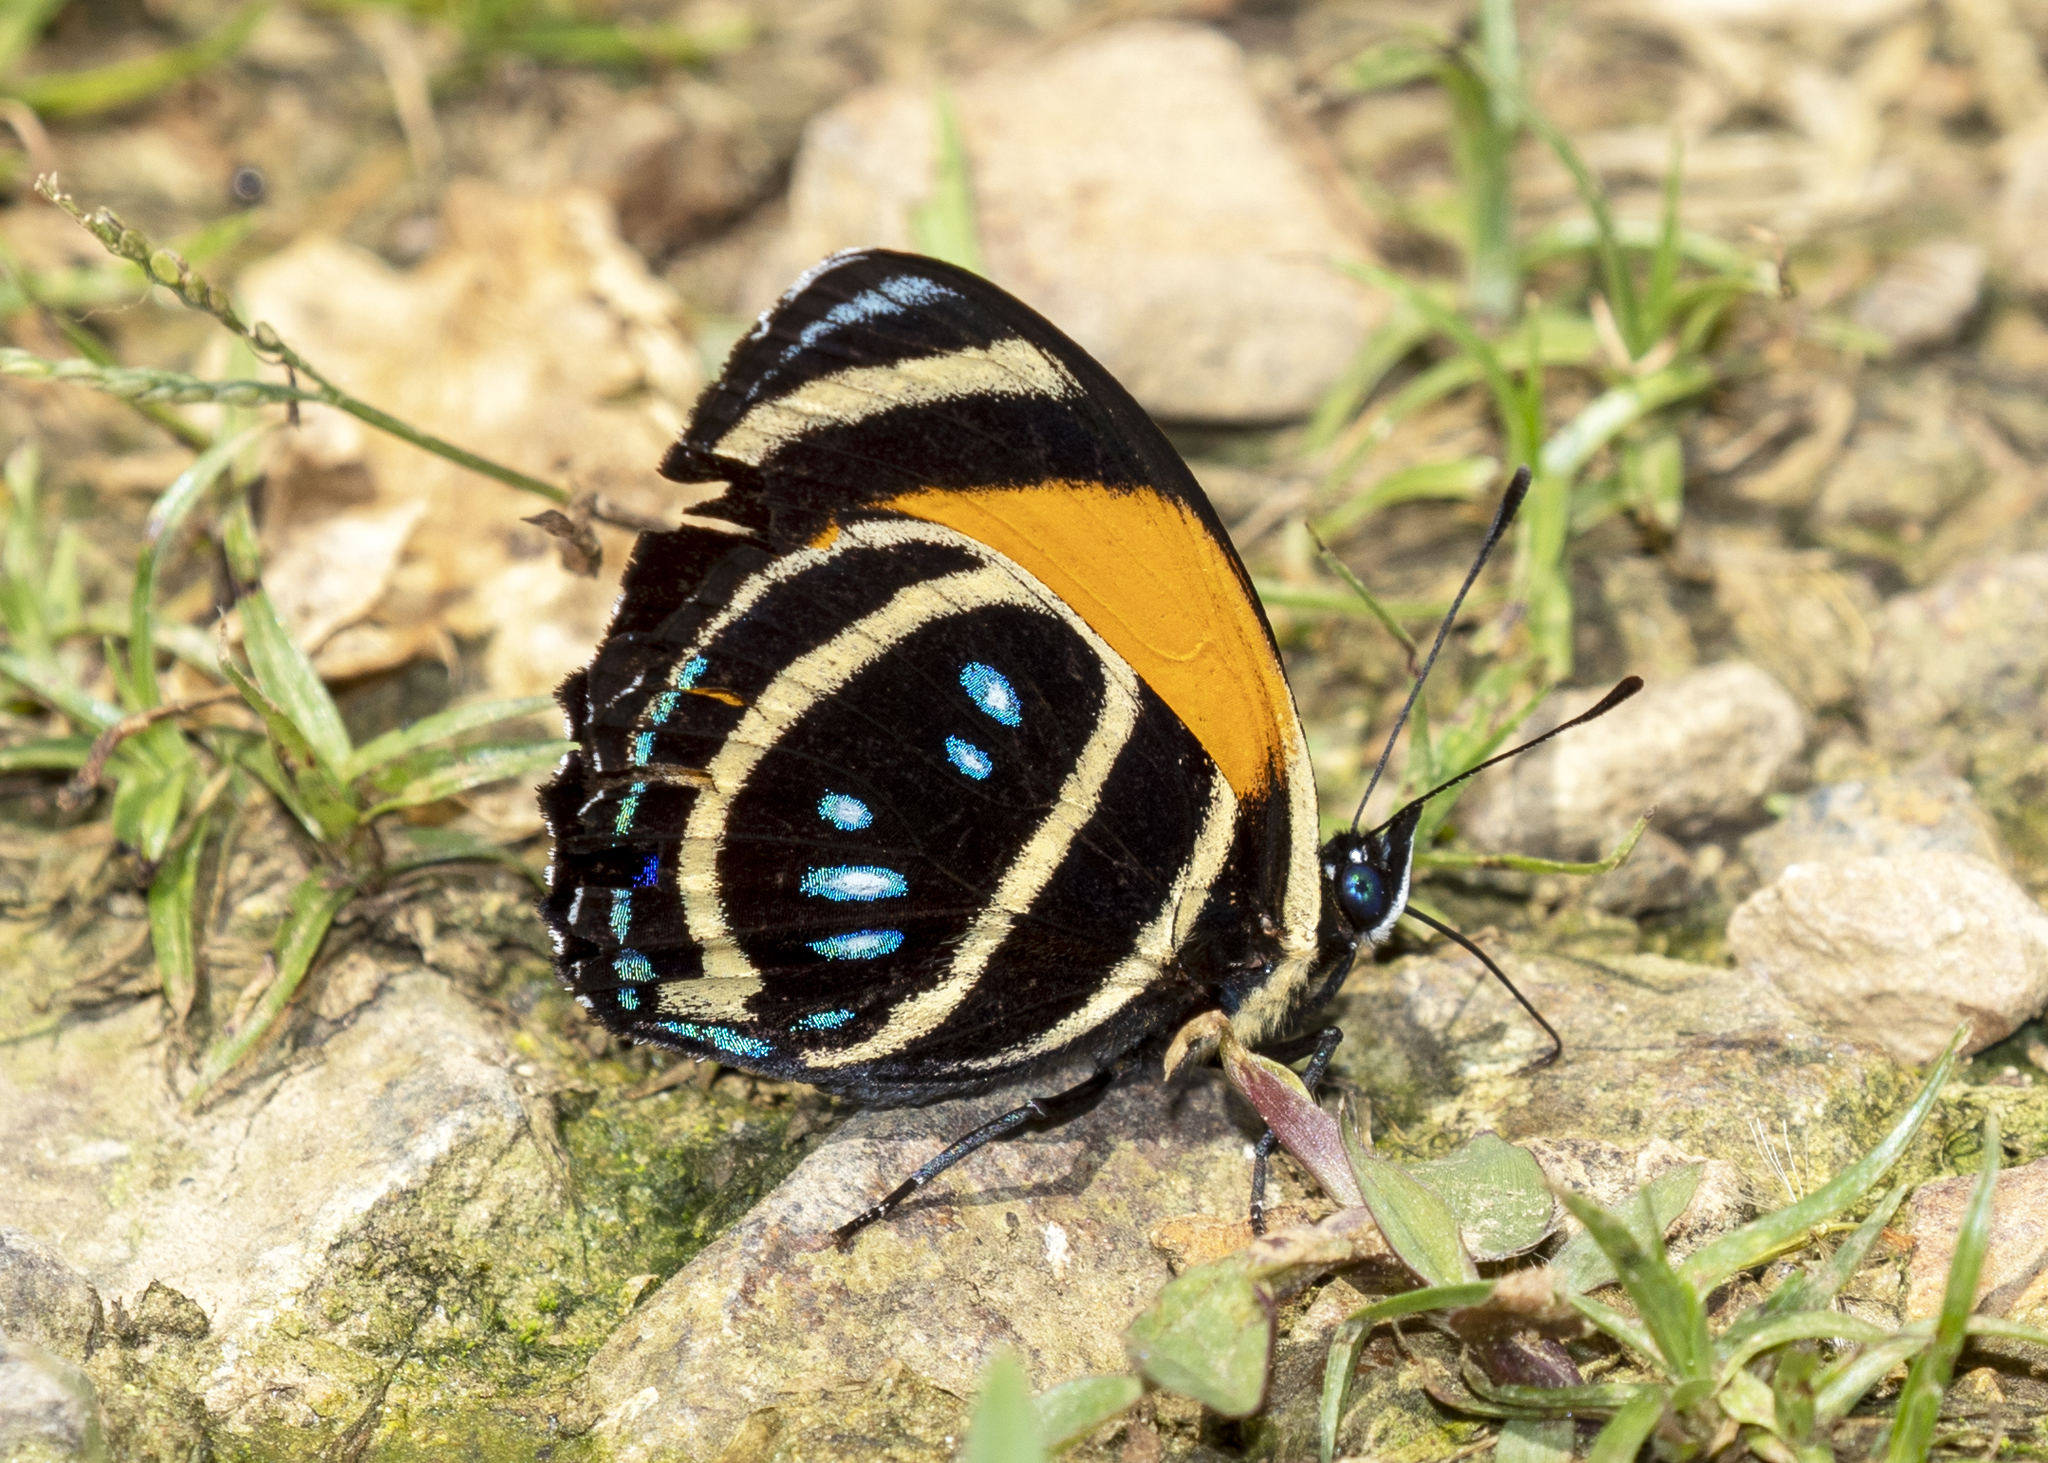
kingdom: Animalia
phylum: Arthropoda
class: Insecta
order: Lepidoptera
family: Nymphalidae
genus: Catagramma
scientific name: Catagramma Callicore lyca
